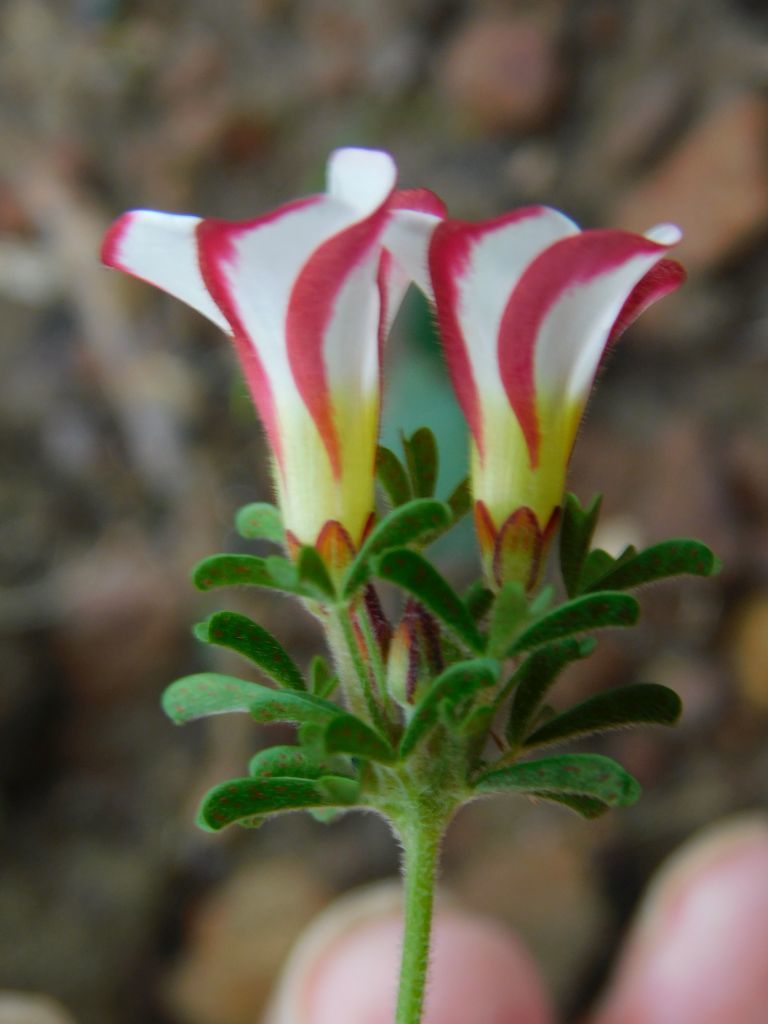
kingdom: Plantae
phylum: Tracheophyta
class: Magnoliopsida
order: Oxalidales
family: Oxalidaceae
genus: Oxalis
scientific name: Oxalis multicaulis
